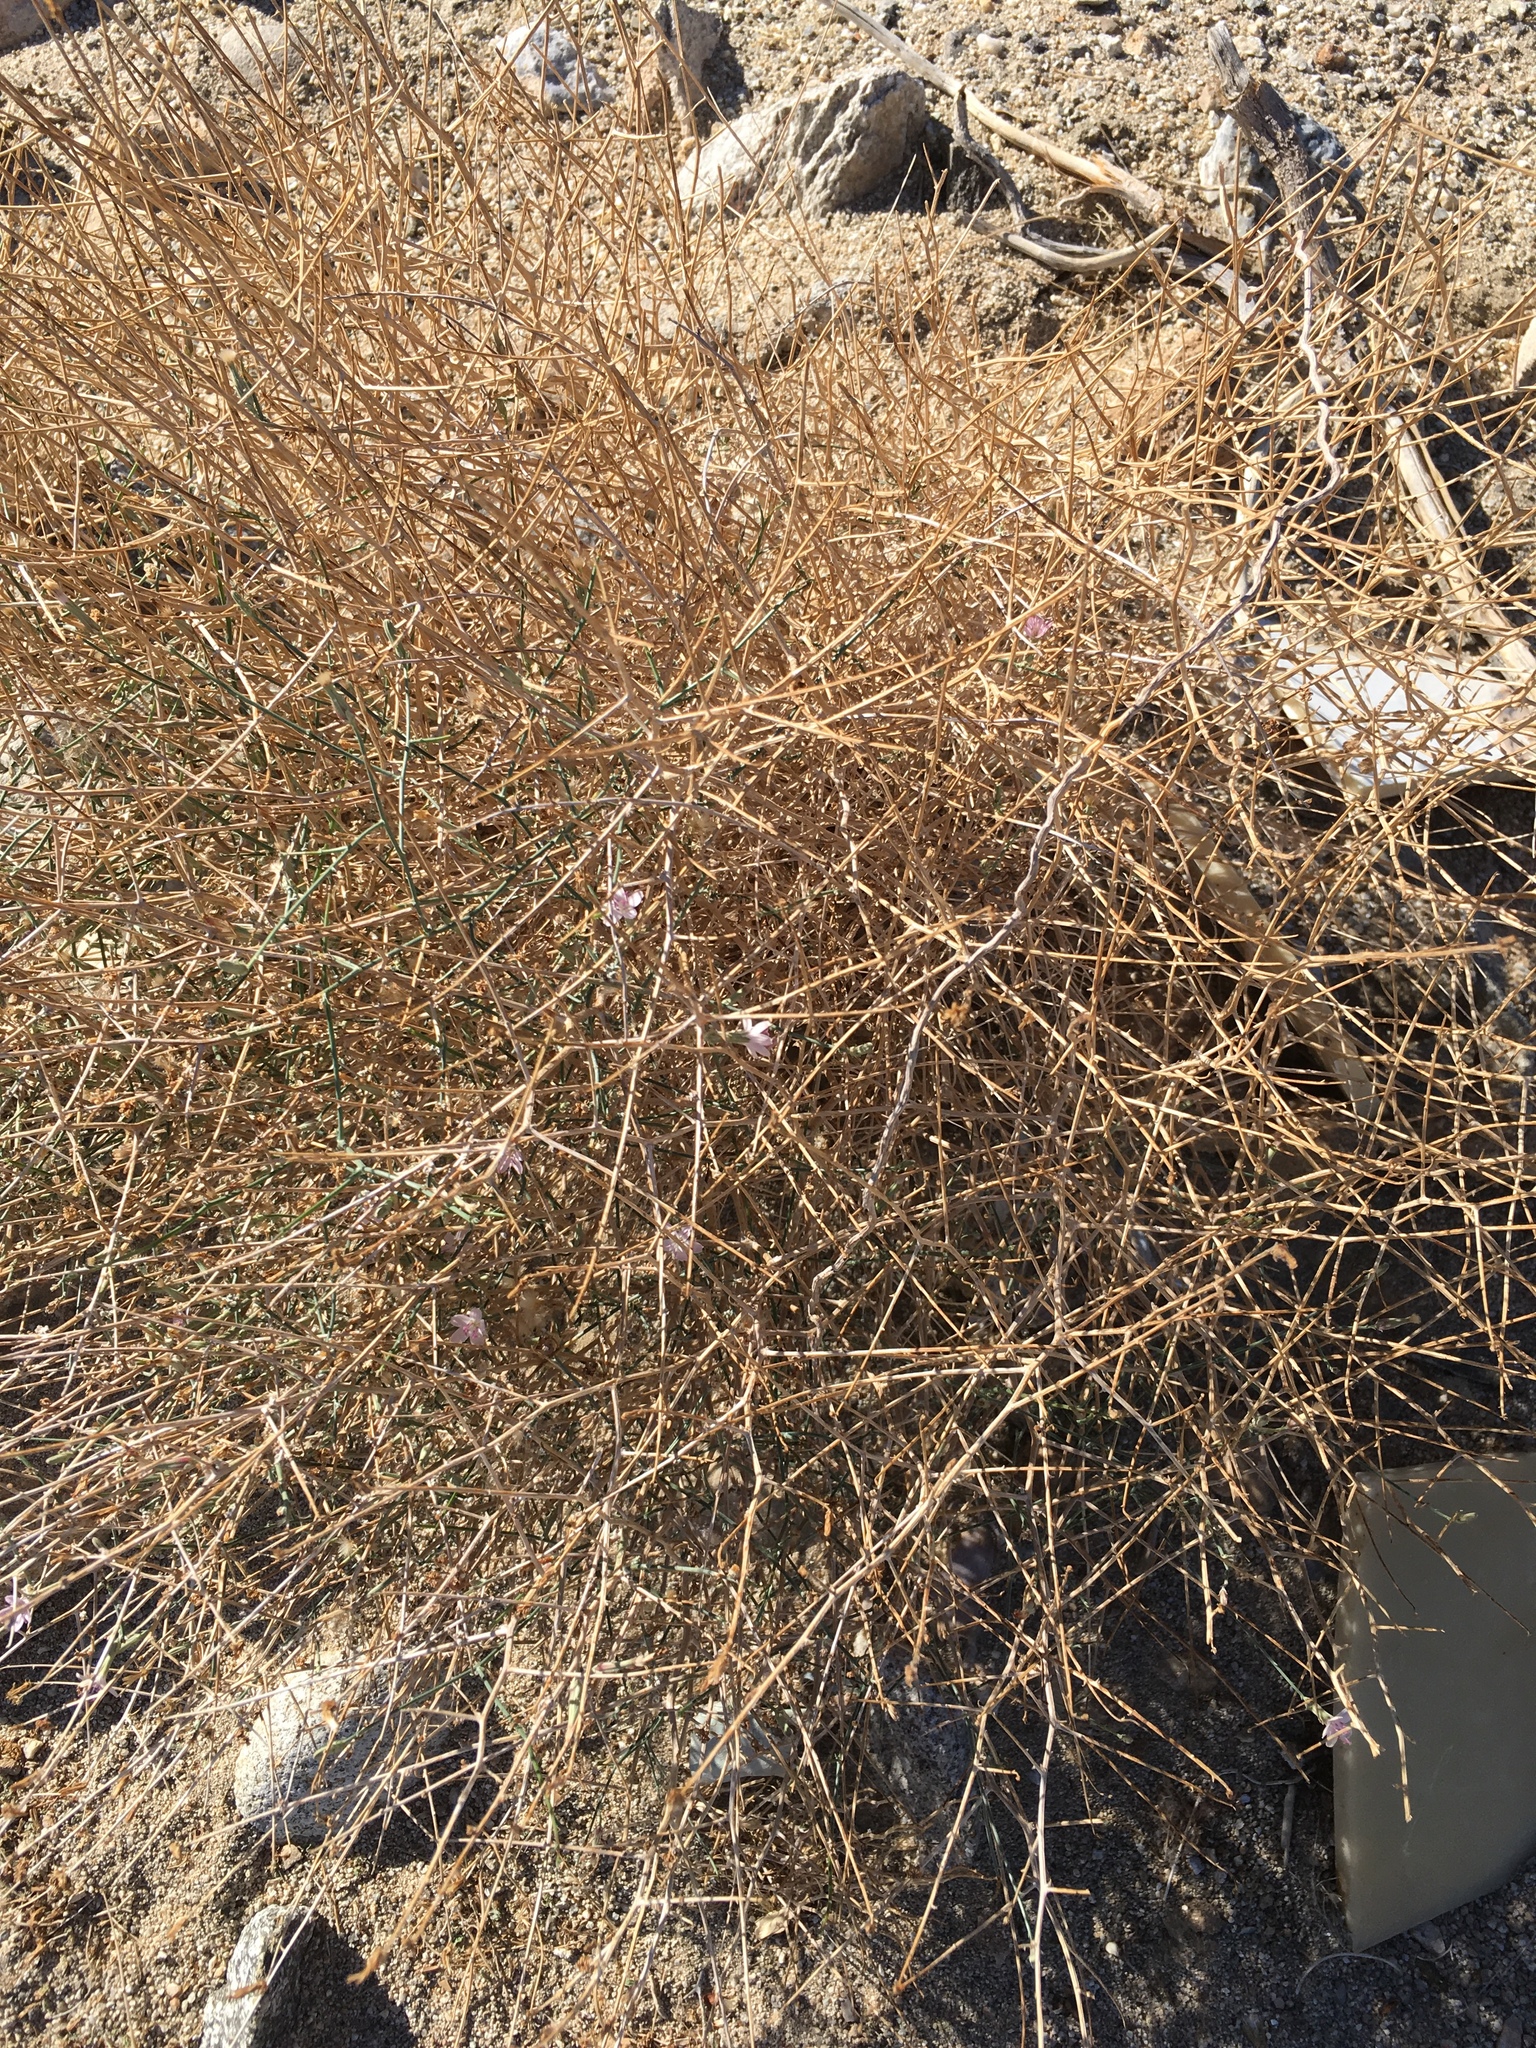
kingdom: Plantae
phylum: Tracheophyta
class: Magnoliopsida
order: Asterales
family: Asteraceae
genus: Stephanomeria
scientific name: Stephanomeria pauciflora
